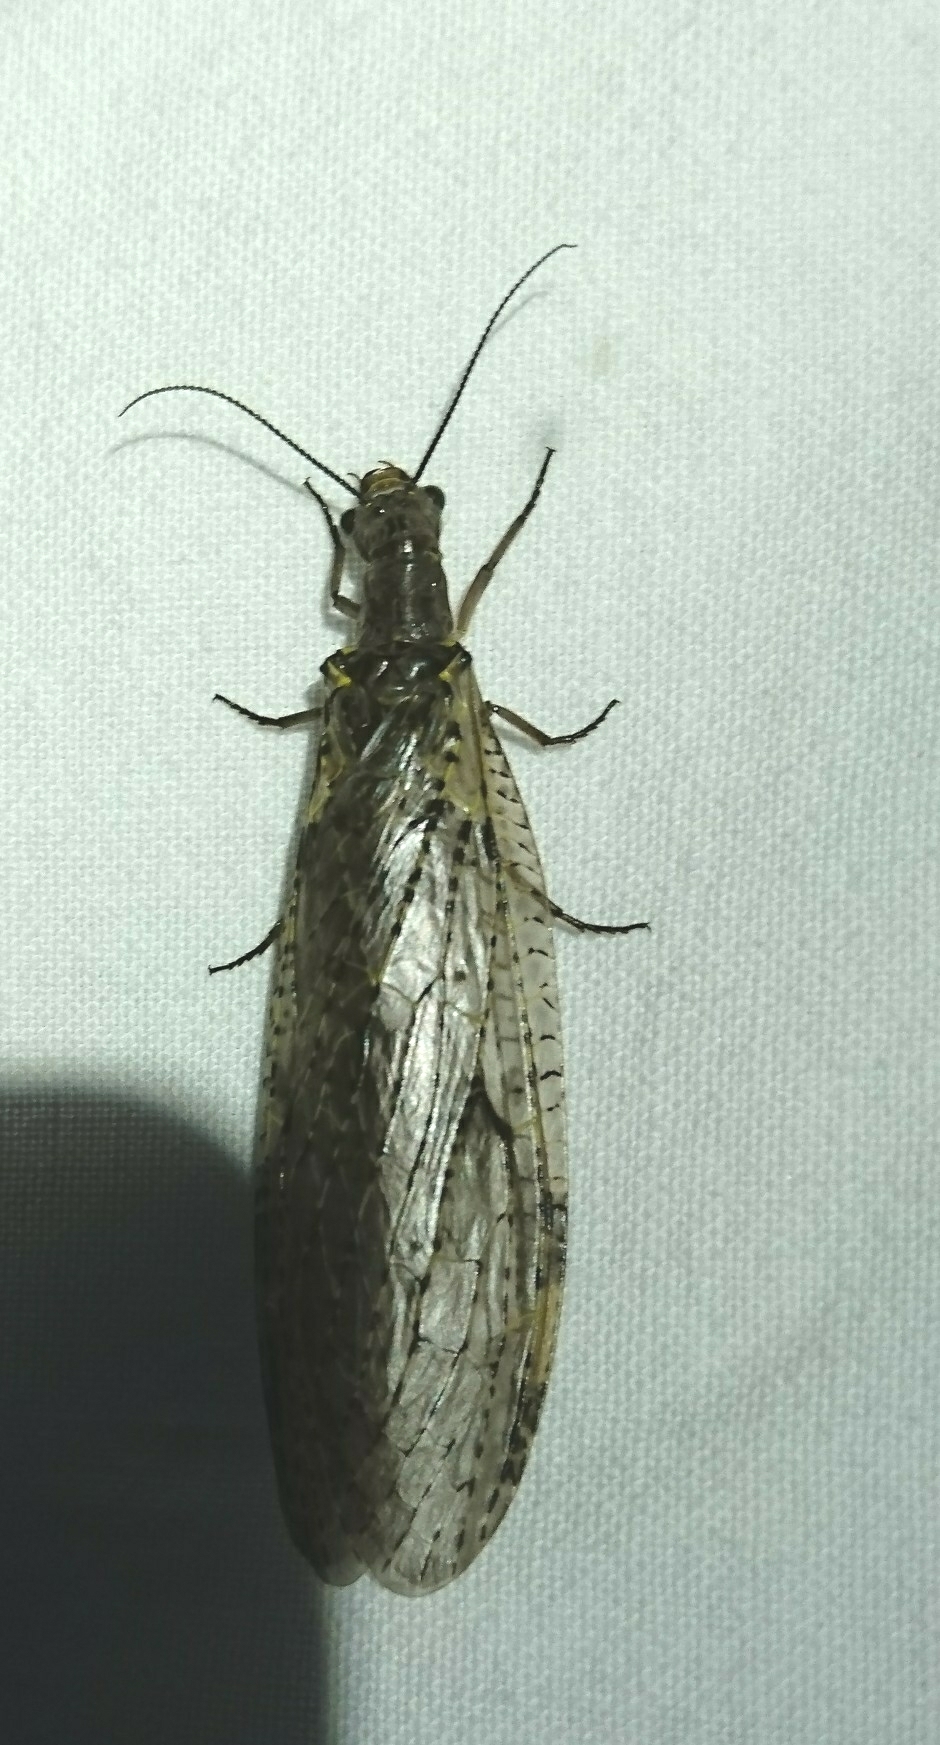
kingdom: Animalia
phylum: Arthropoda
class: Insecta
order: Megaloptera
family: Corydalidae
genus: Chauliodes
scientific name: Chauliodes rastricornis
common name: Spring fishfly
